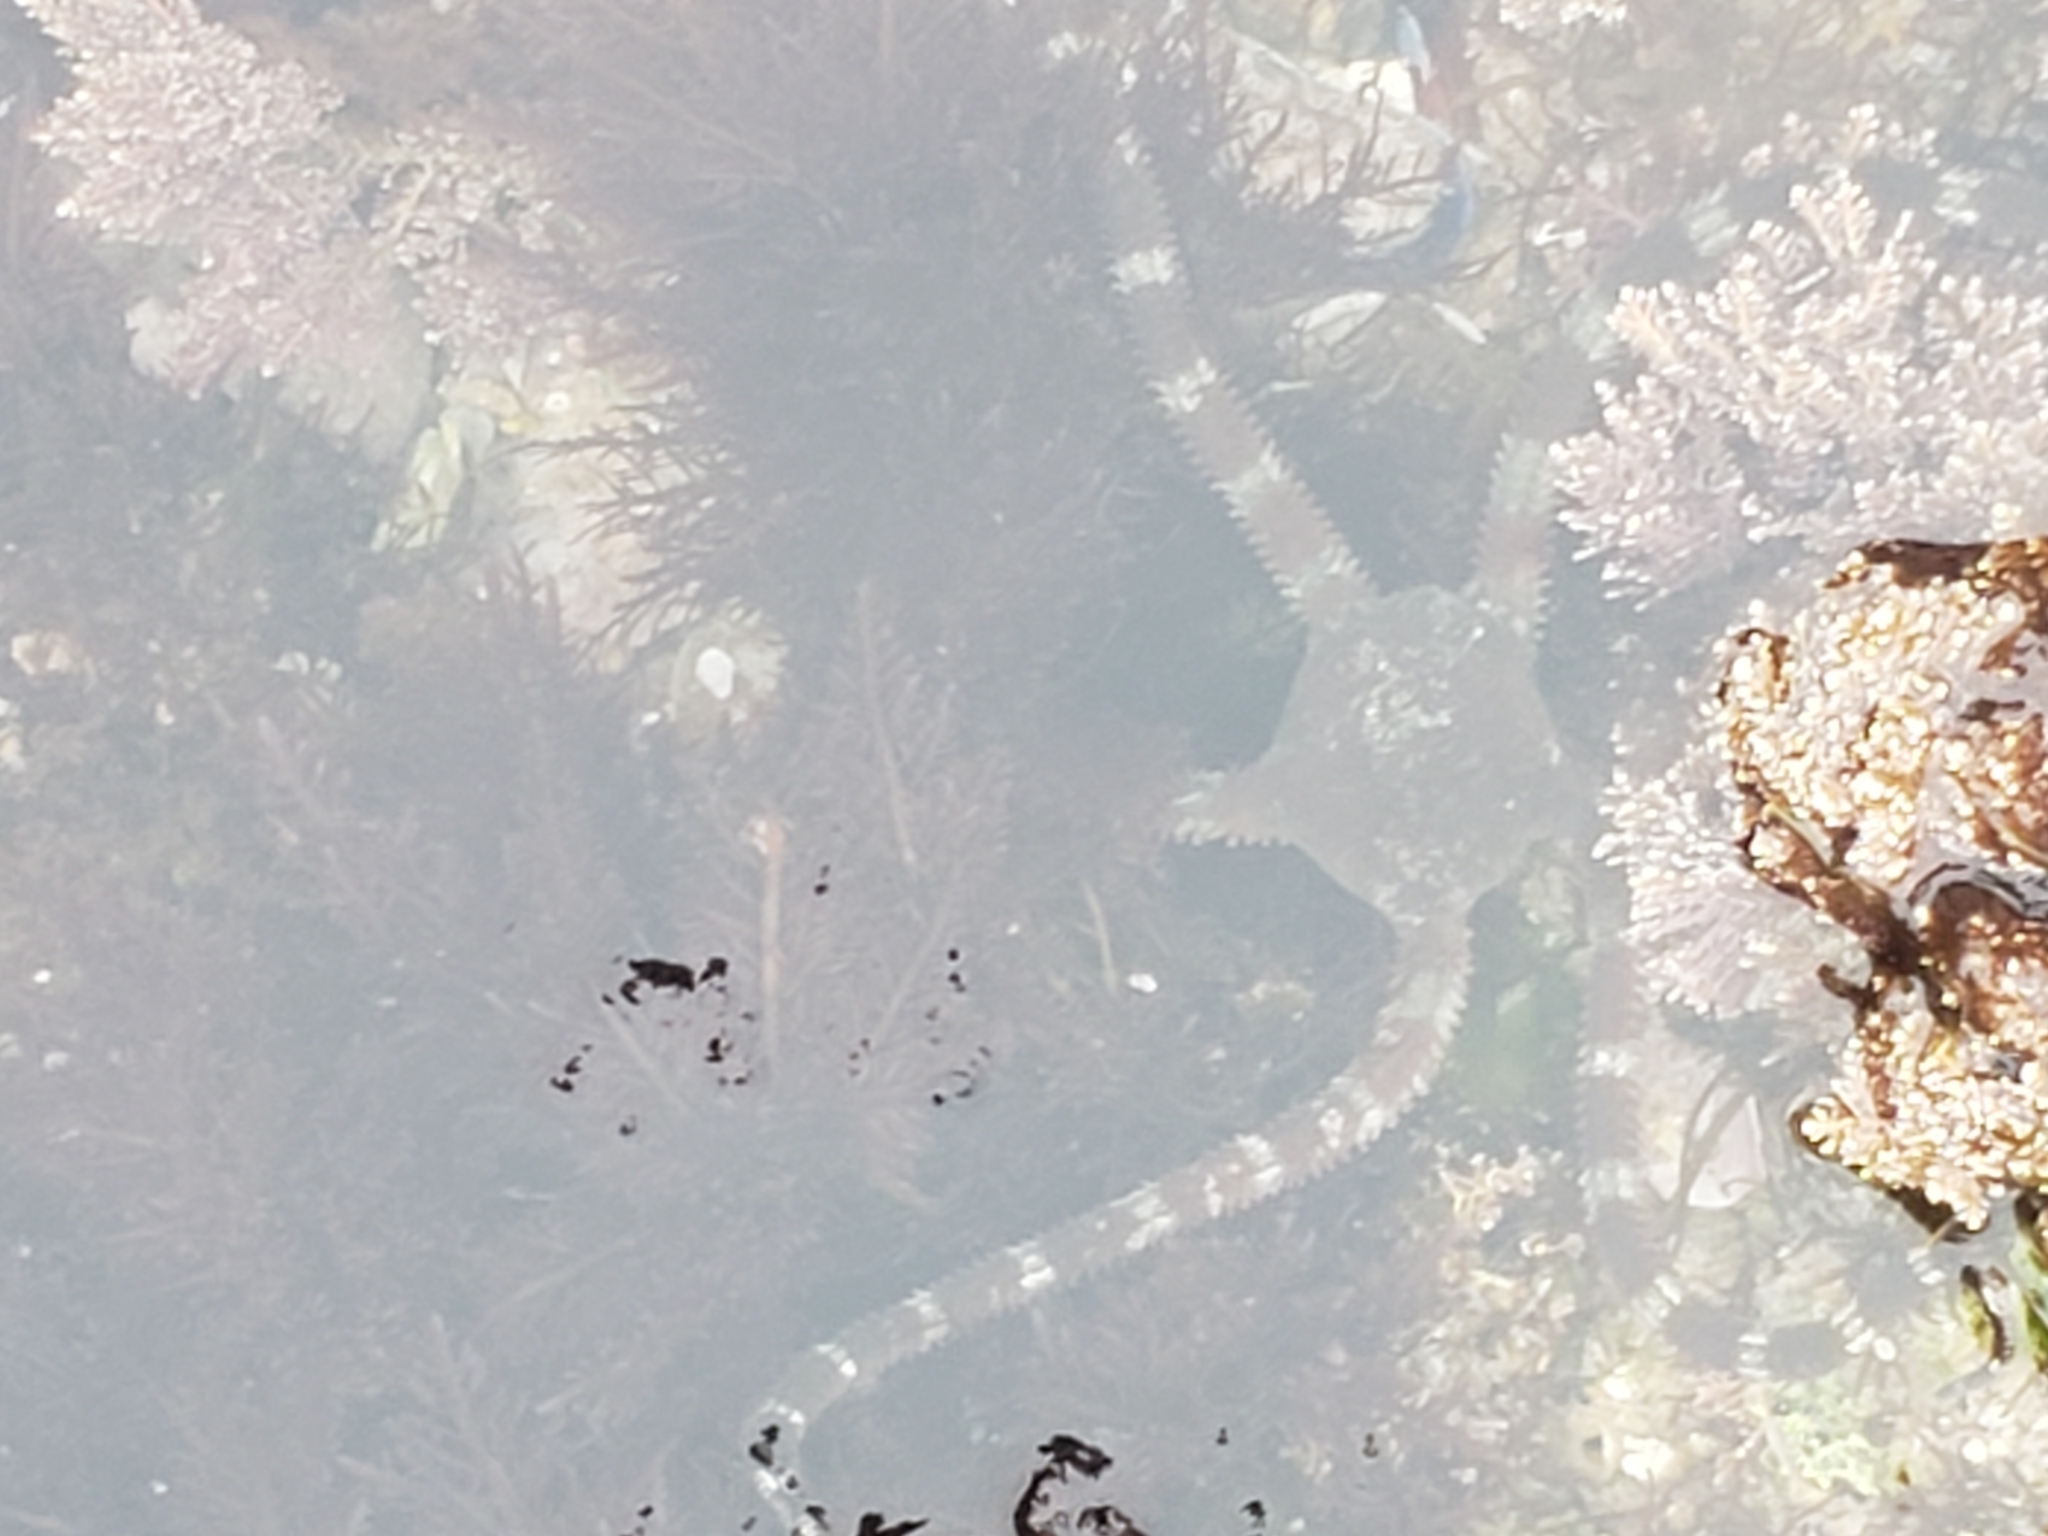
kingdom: Animalia
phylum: Echinodermata
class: Ophiuroidea
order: Ophiacanthida
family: Ophiodermatidae
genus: Ophioderma
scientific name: Ophioderma panamense
